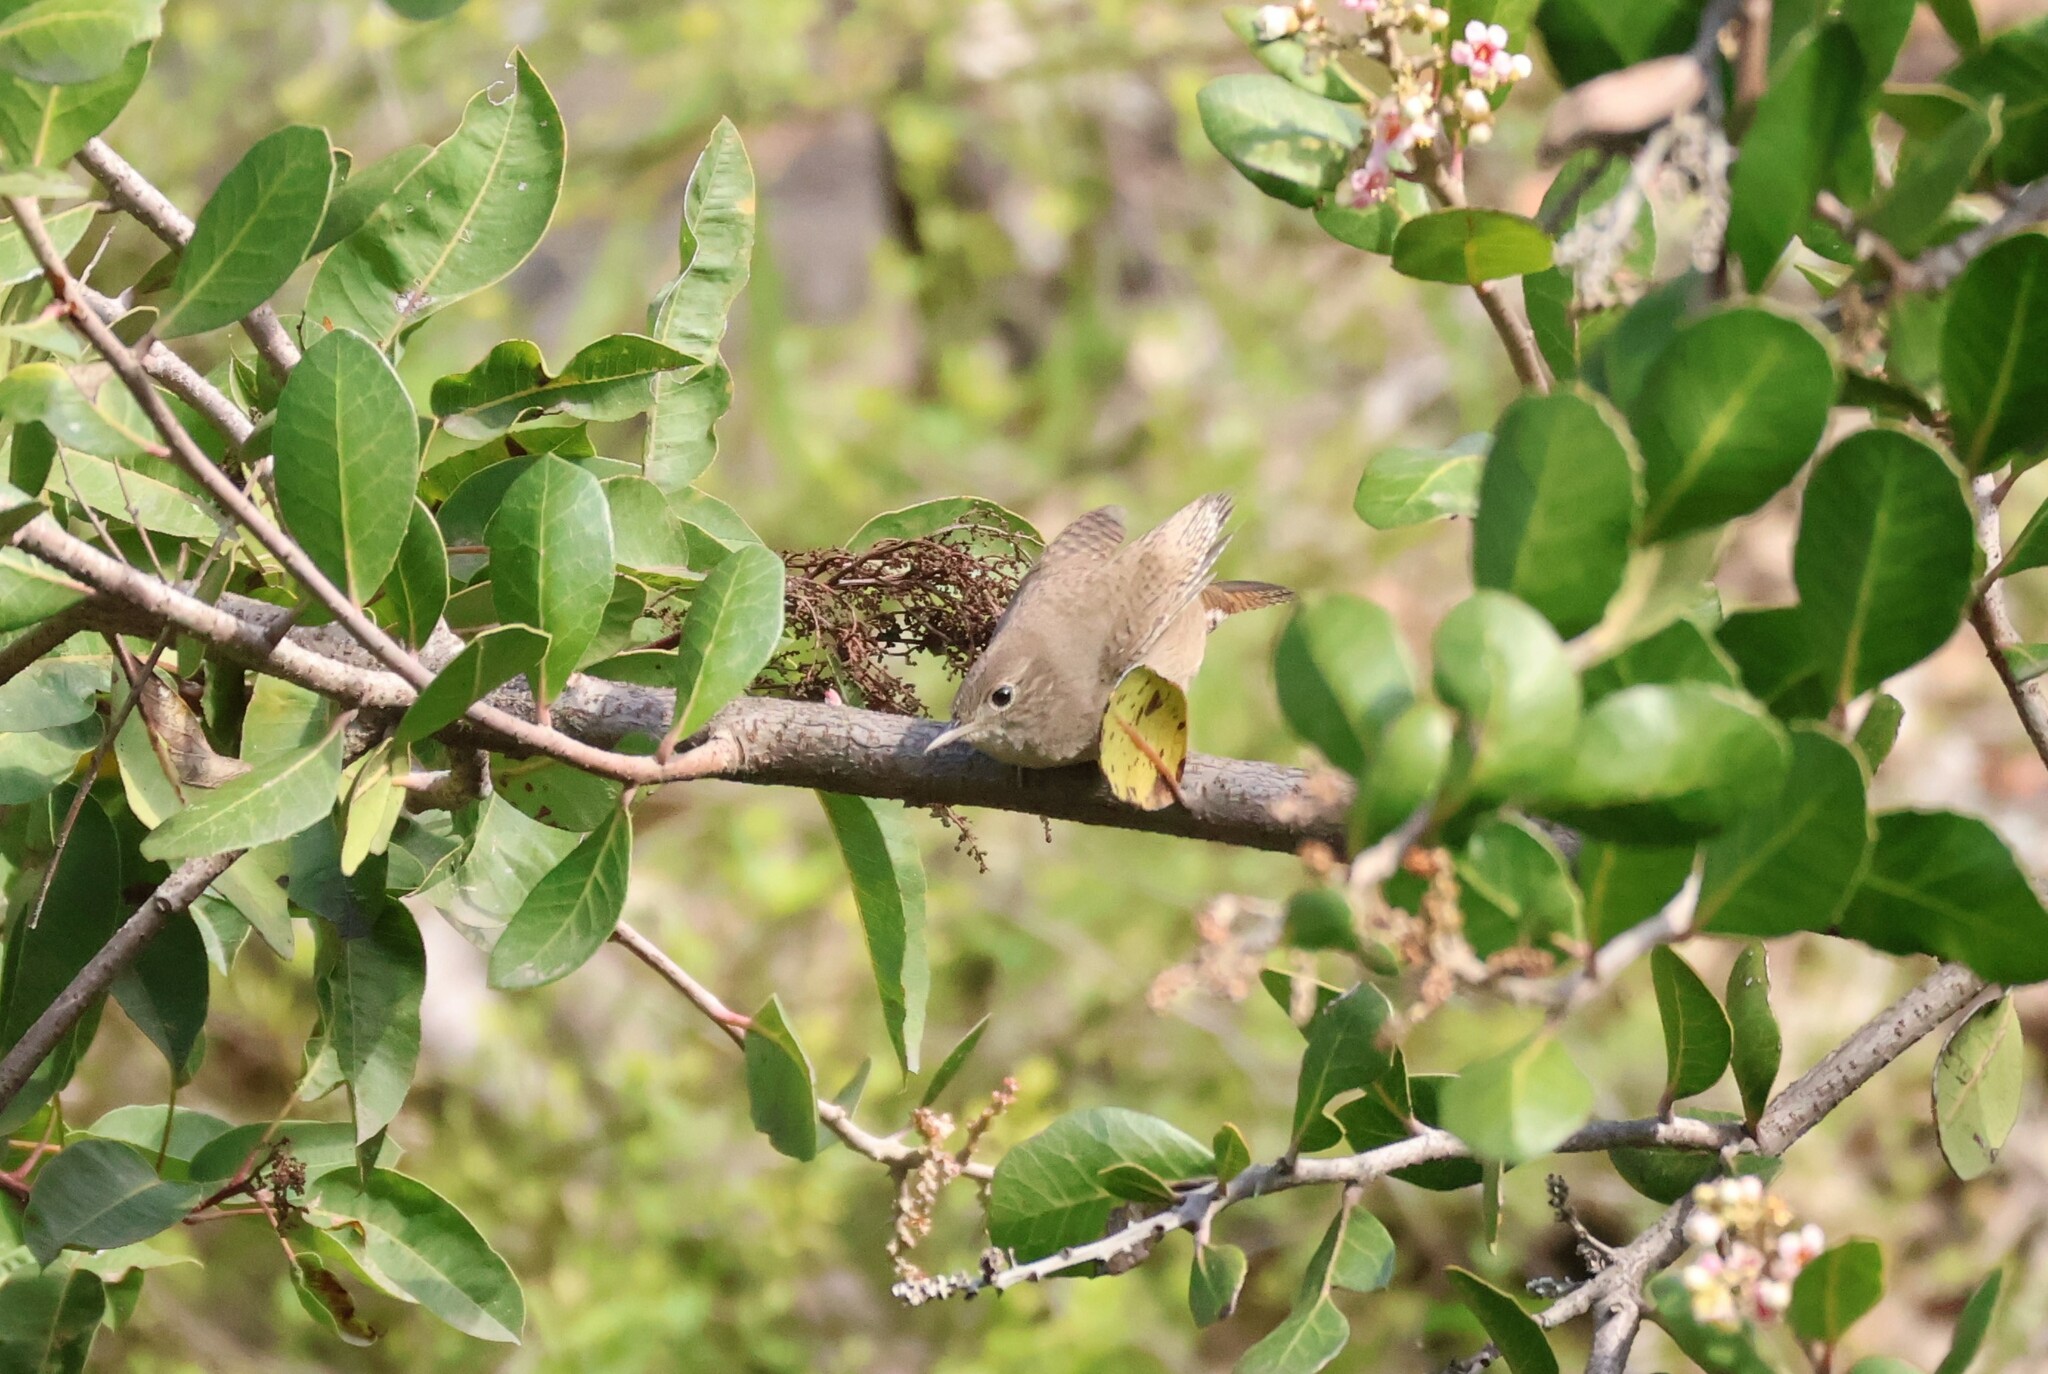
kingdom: Animalia
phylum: Chordata
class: Aves
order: Passeriformes
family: Troglodytidae
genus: Troglodytes
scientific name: Troglodytes aedon
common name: House wren
